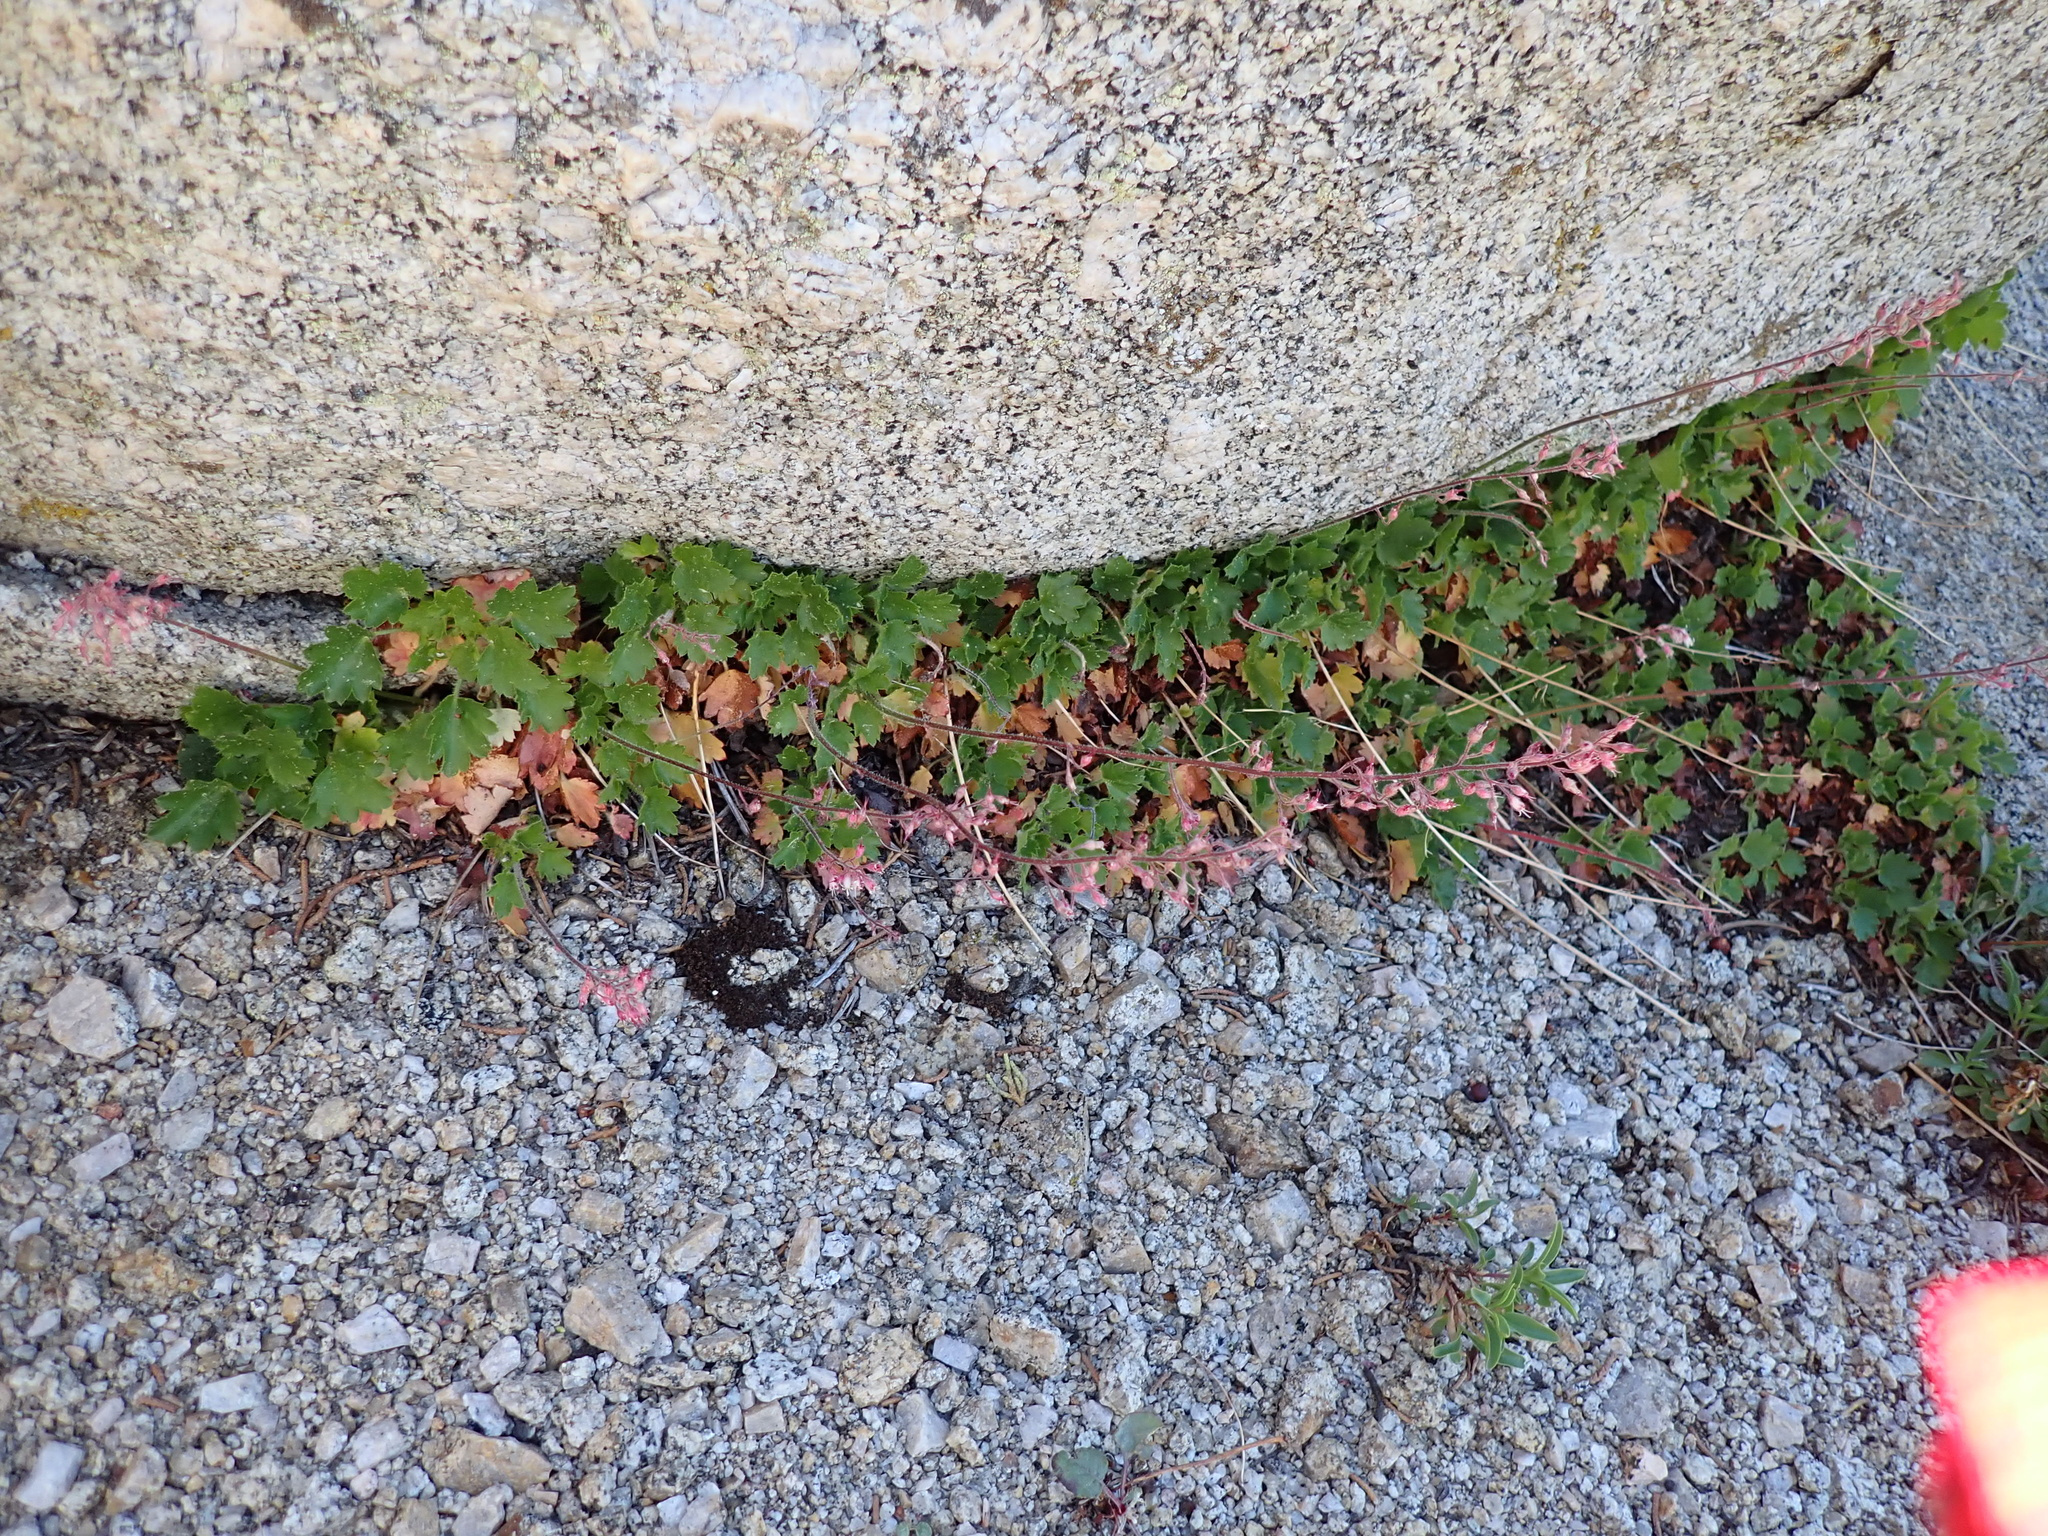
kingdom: Plantae
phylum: Tracheophyta
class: Magnoliopsida
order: Saxifragales
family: Saxifragaceae
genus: Heuchera
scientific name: Heuchera rubescens
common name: Jack-o'the-rocks
